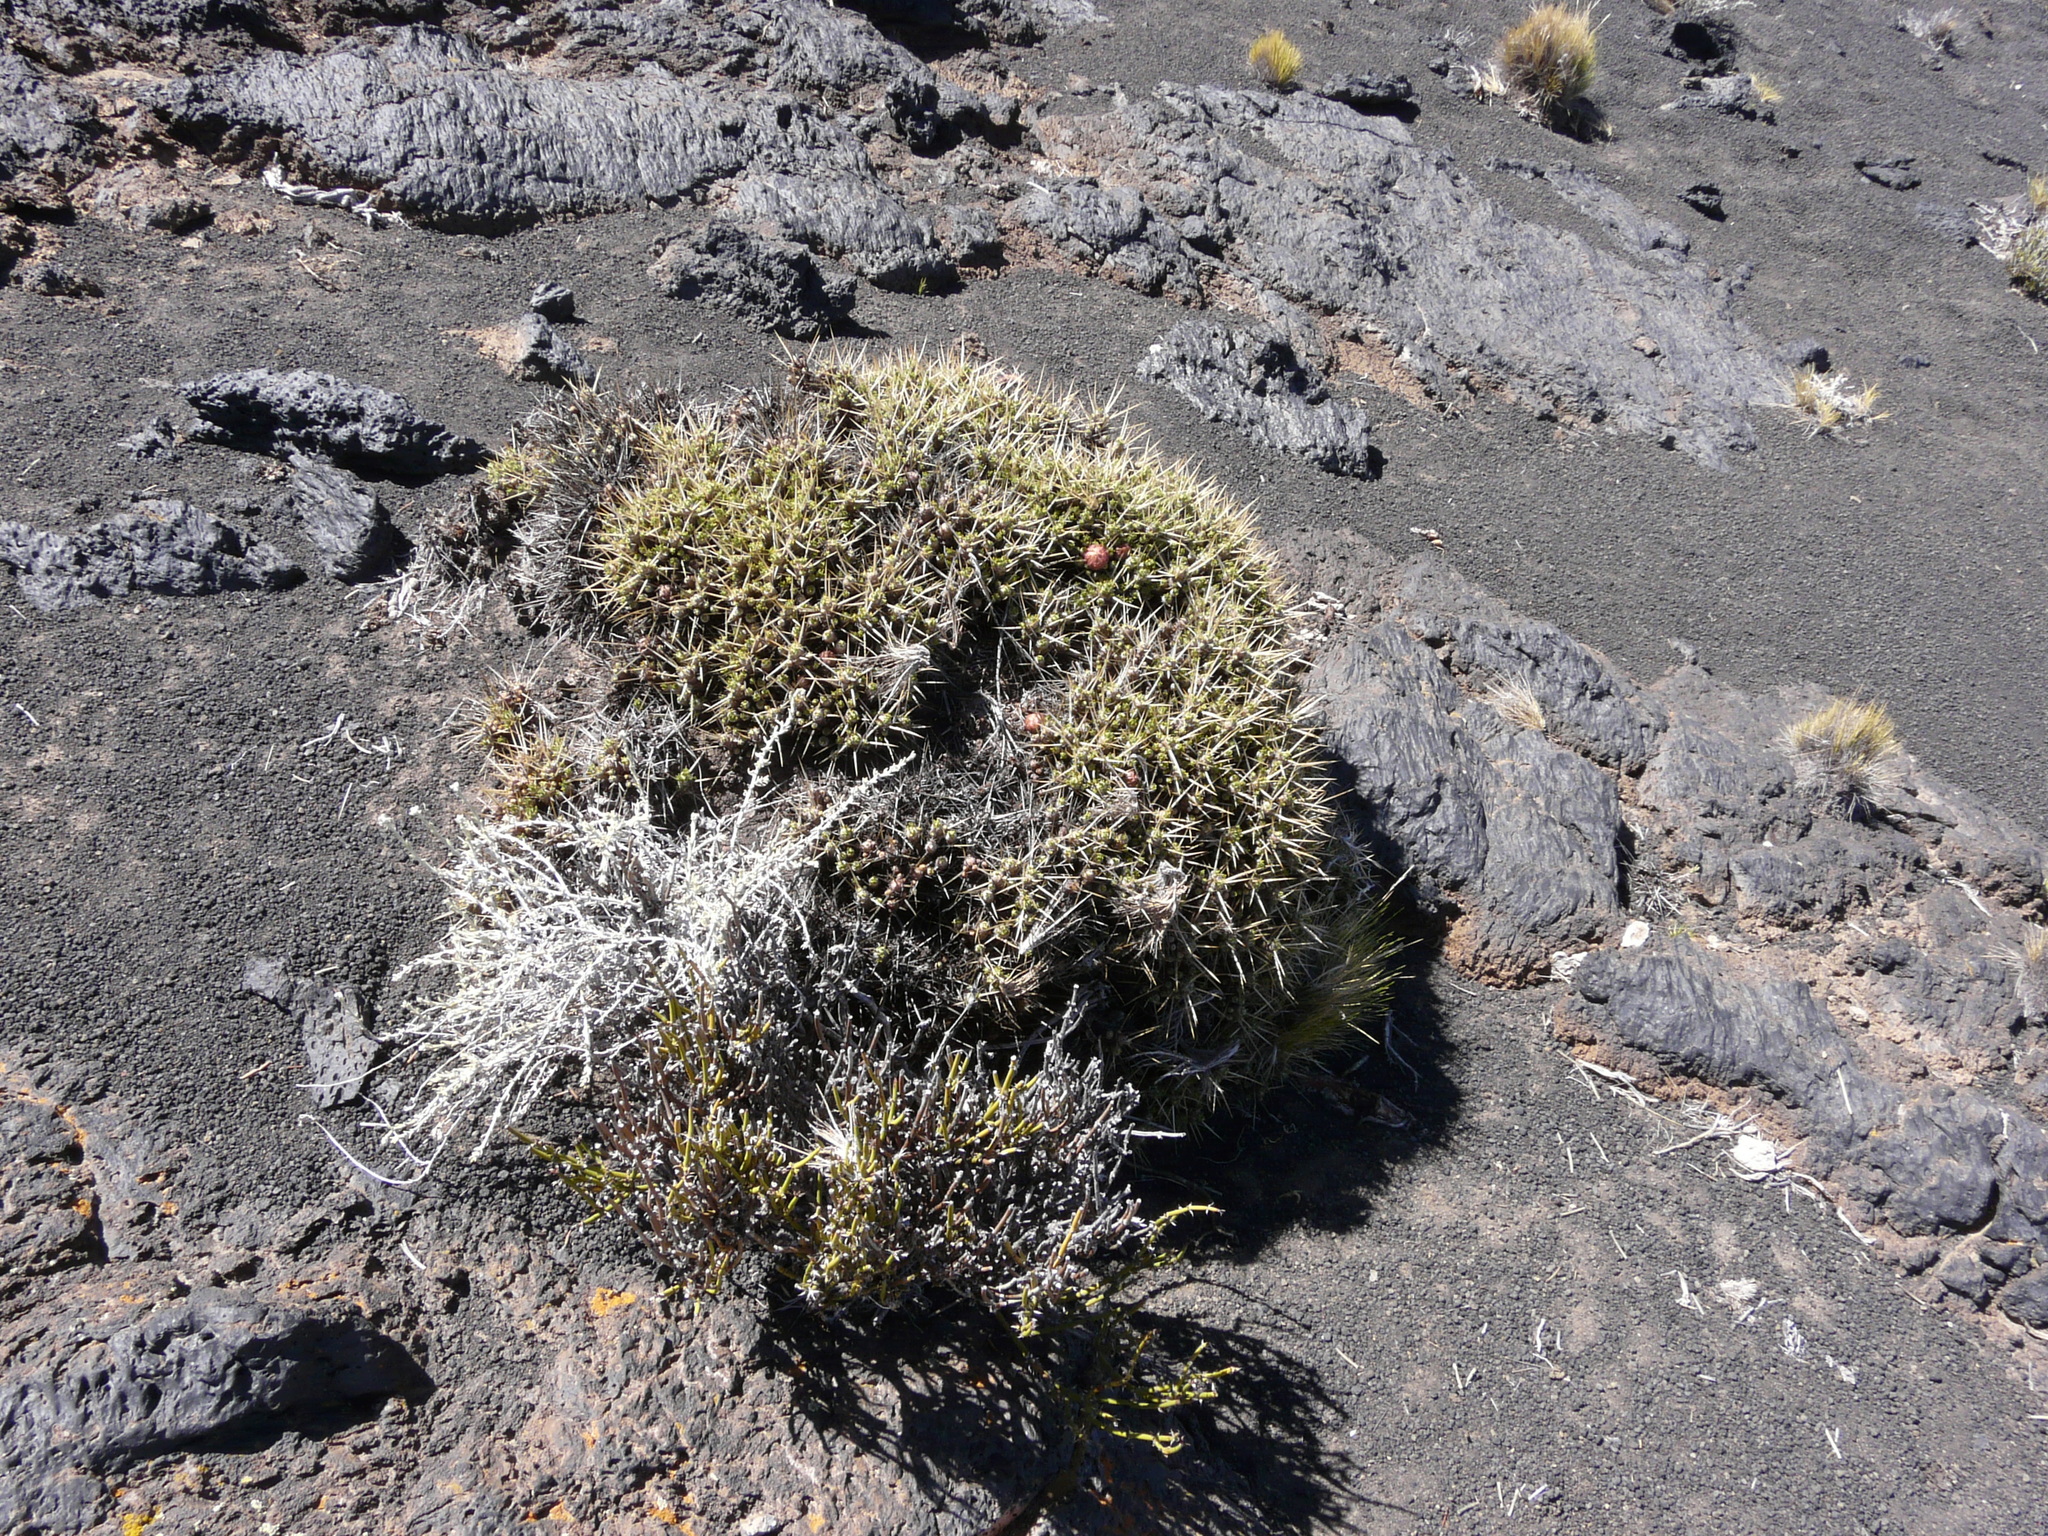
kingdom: Plantae
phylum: Tracheophyta
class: Magnoliopsida
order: Caryophyllales
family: Cactaceae
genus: Maihuenia
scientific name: Maihuenia patagonica
